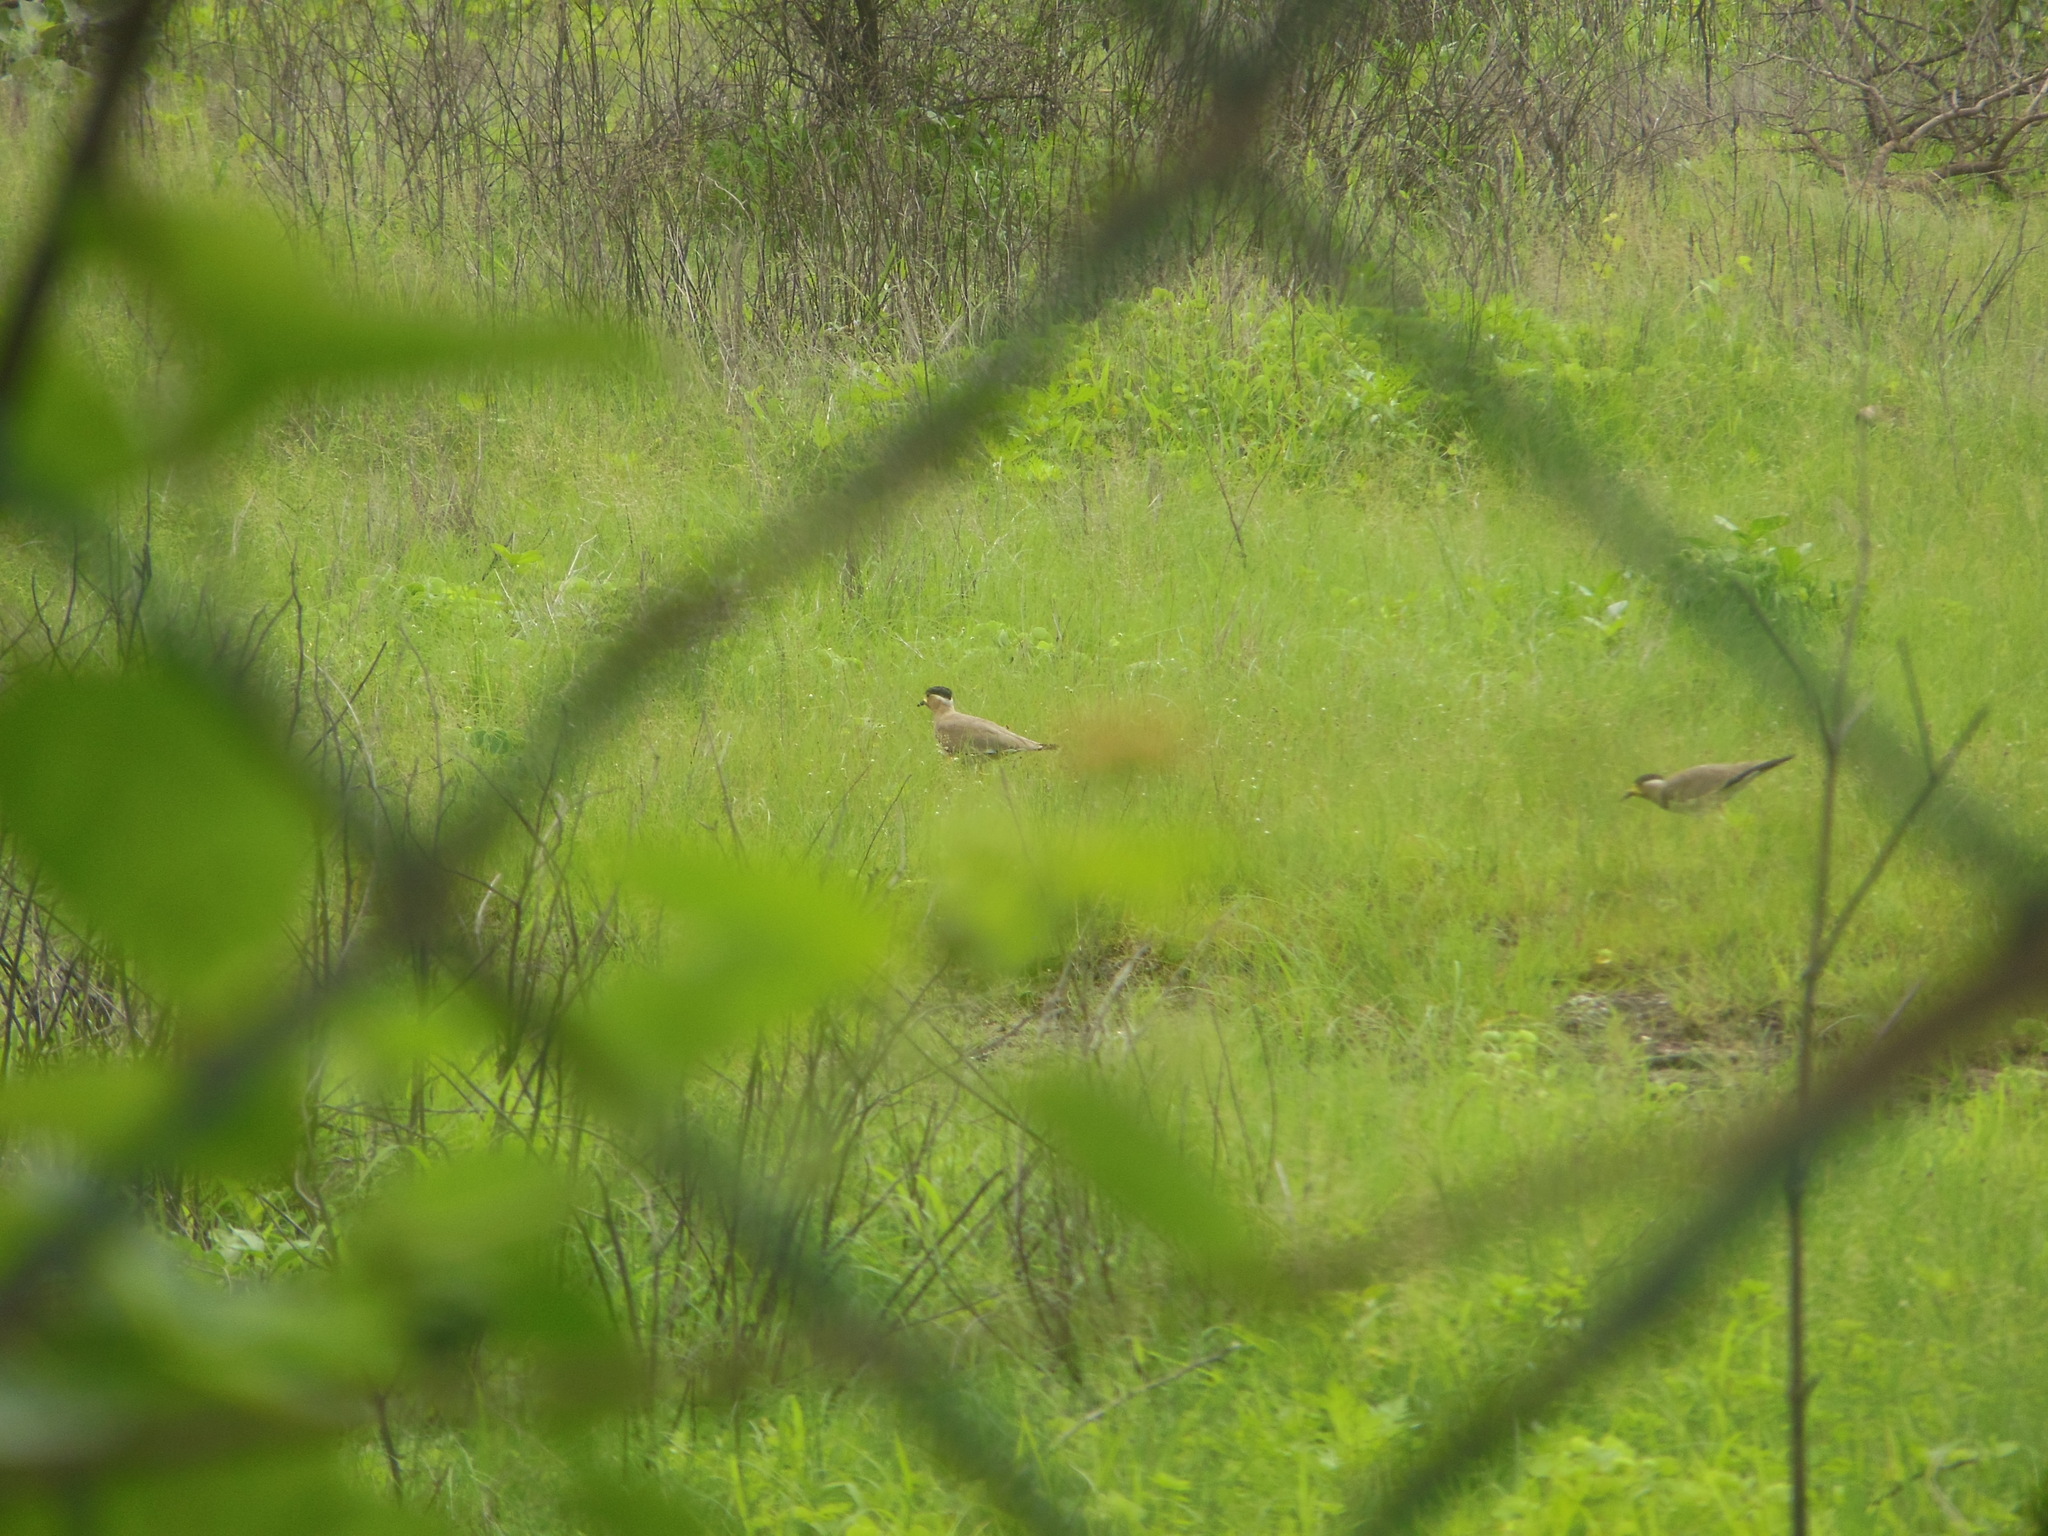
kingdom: Animalia
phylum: Chordata
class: Aves
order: Charadriiformes
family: Charadriidae
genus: Vanellus
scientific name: Vanellus malabaricus
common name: Yellow-wattled lapwing
